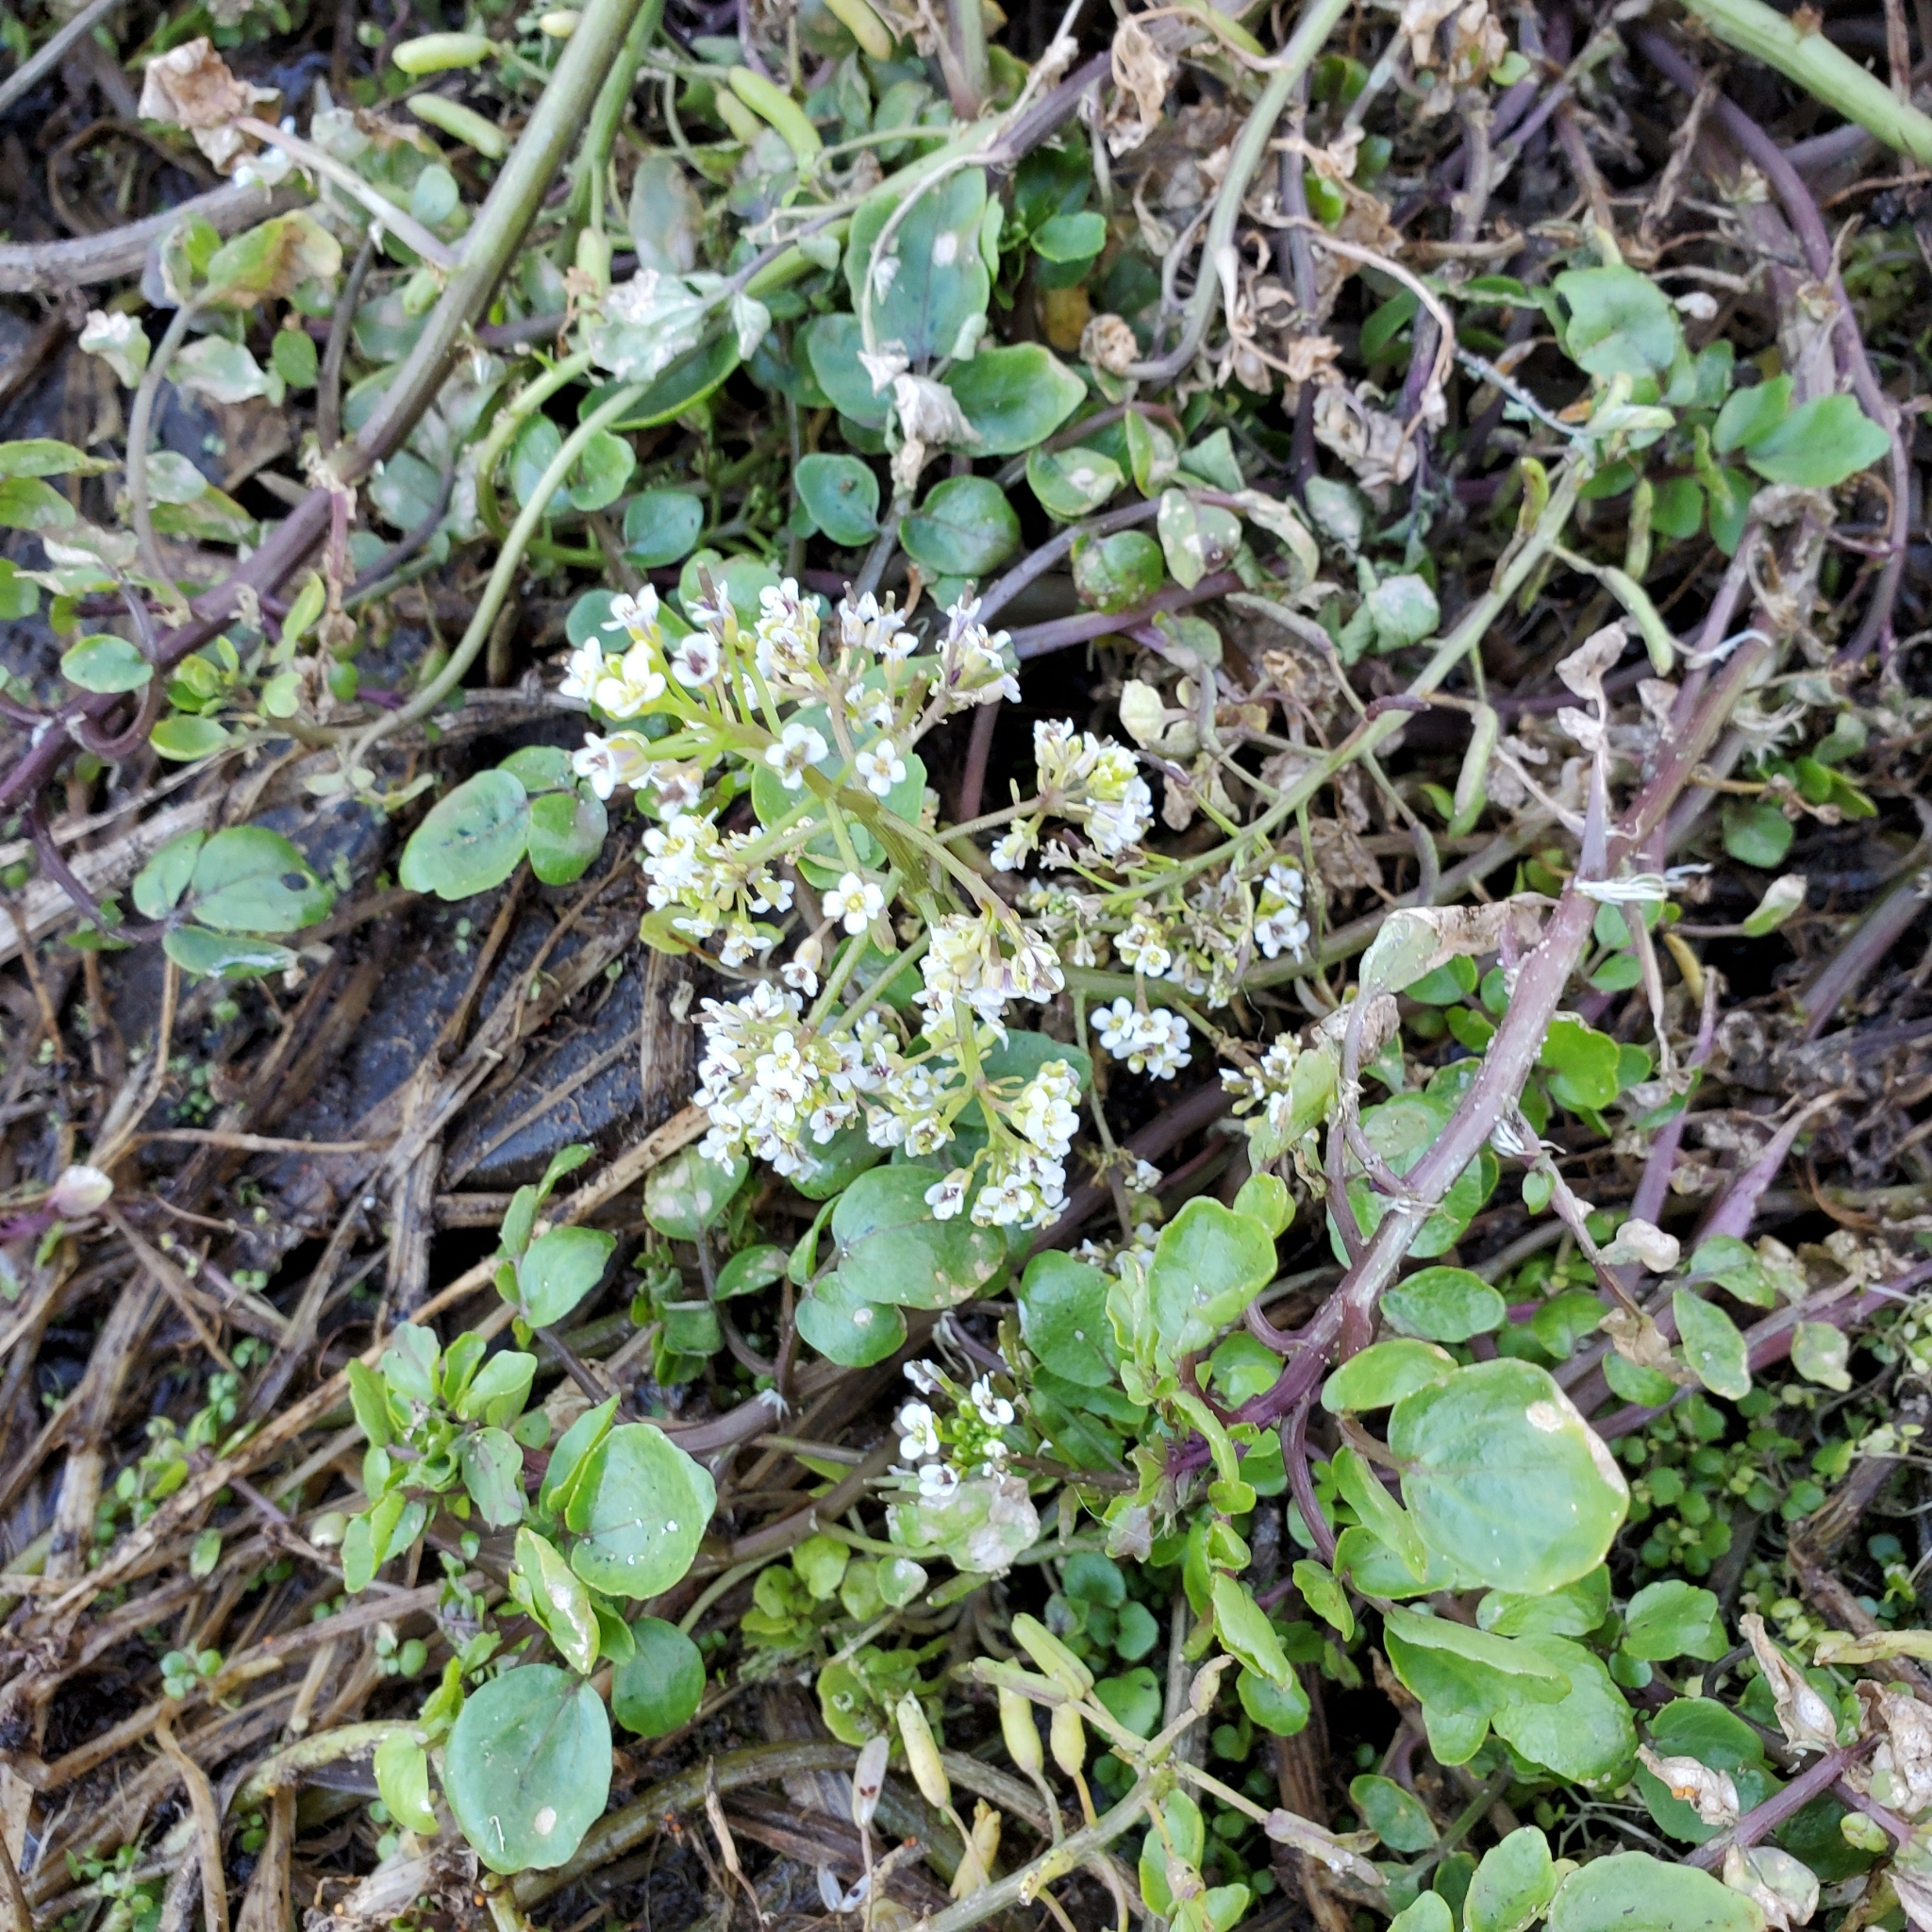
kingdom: Plantae
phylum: Tracheophyta
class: Magnoliopsida
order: Brassicales
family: Brassicaceae
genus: Nasturtium
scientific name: Nasturtium officinale
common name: Watercress
